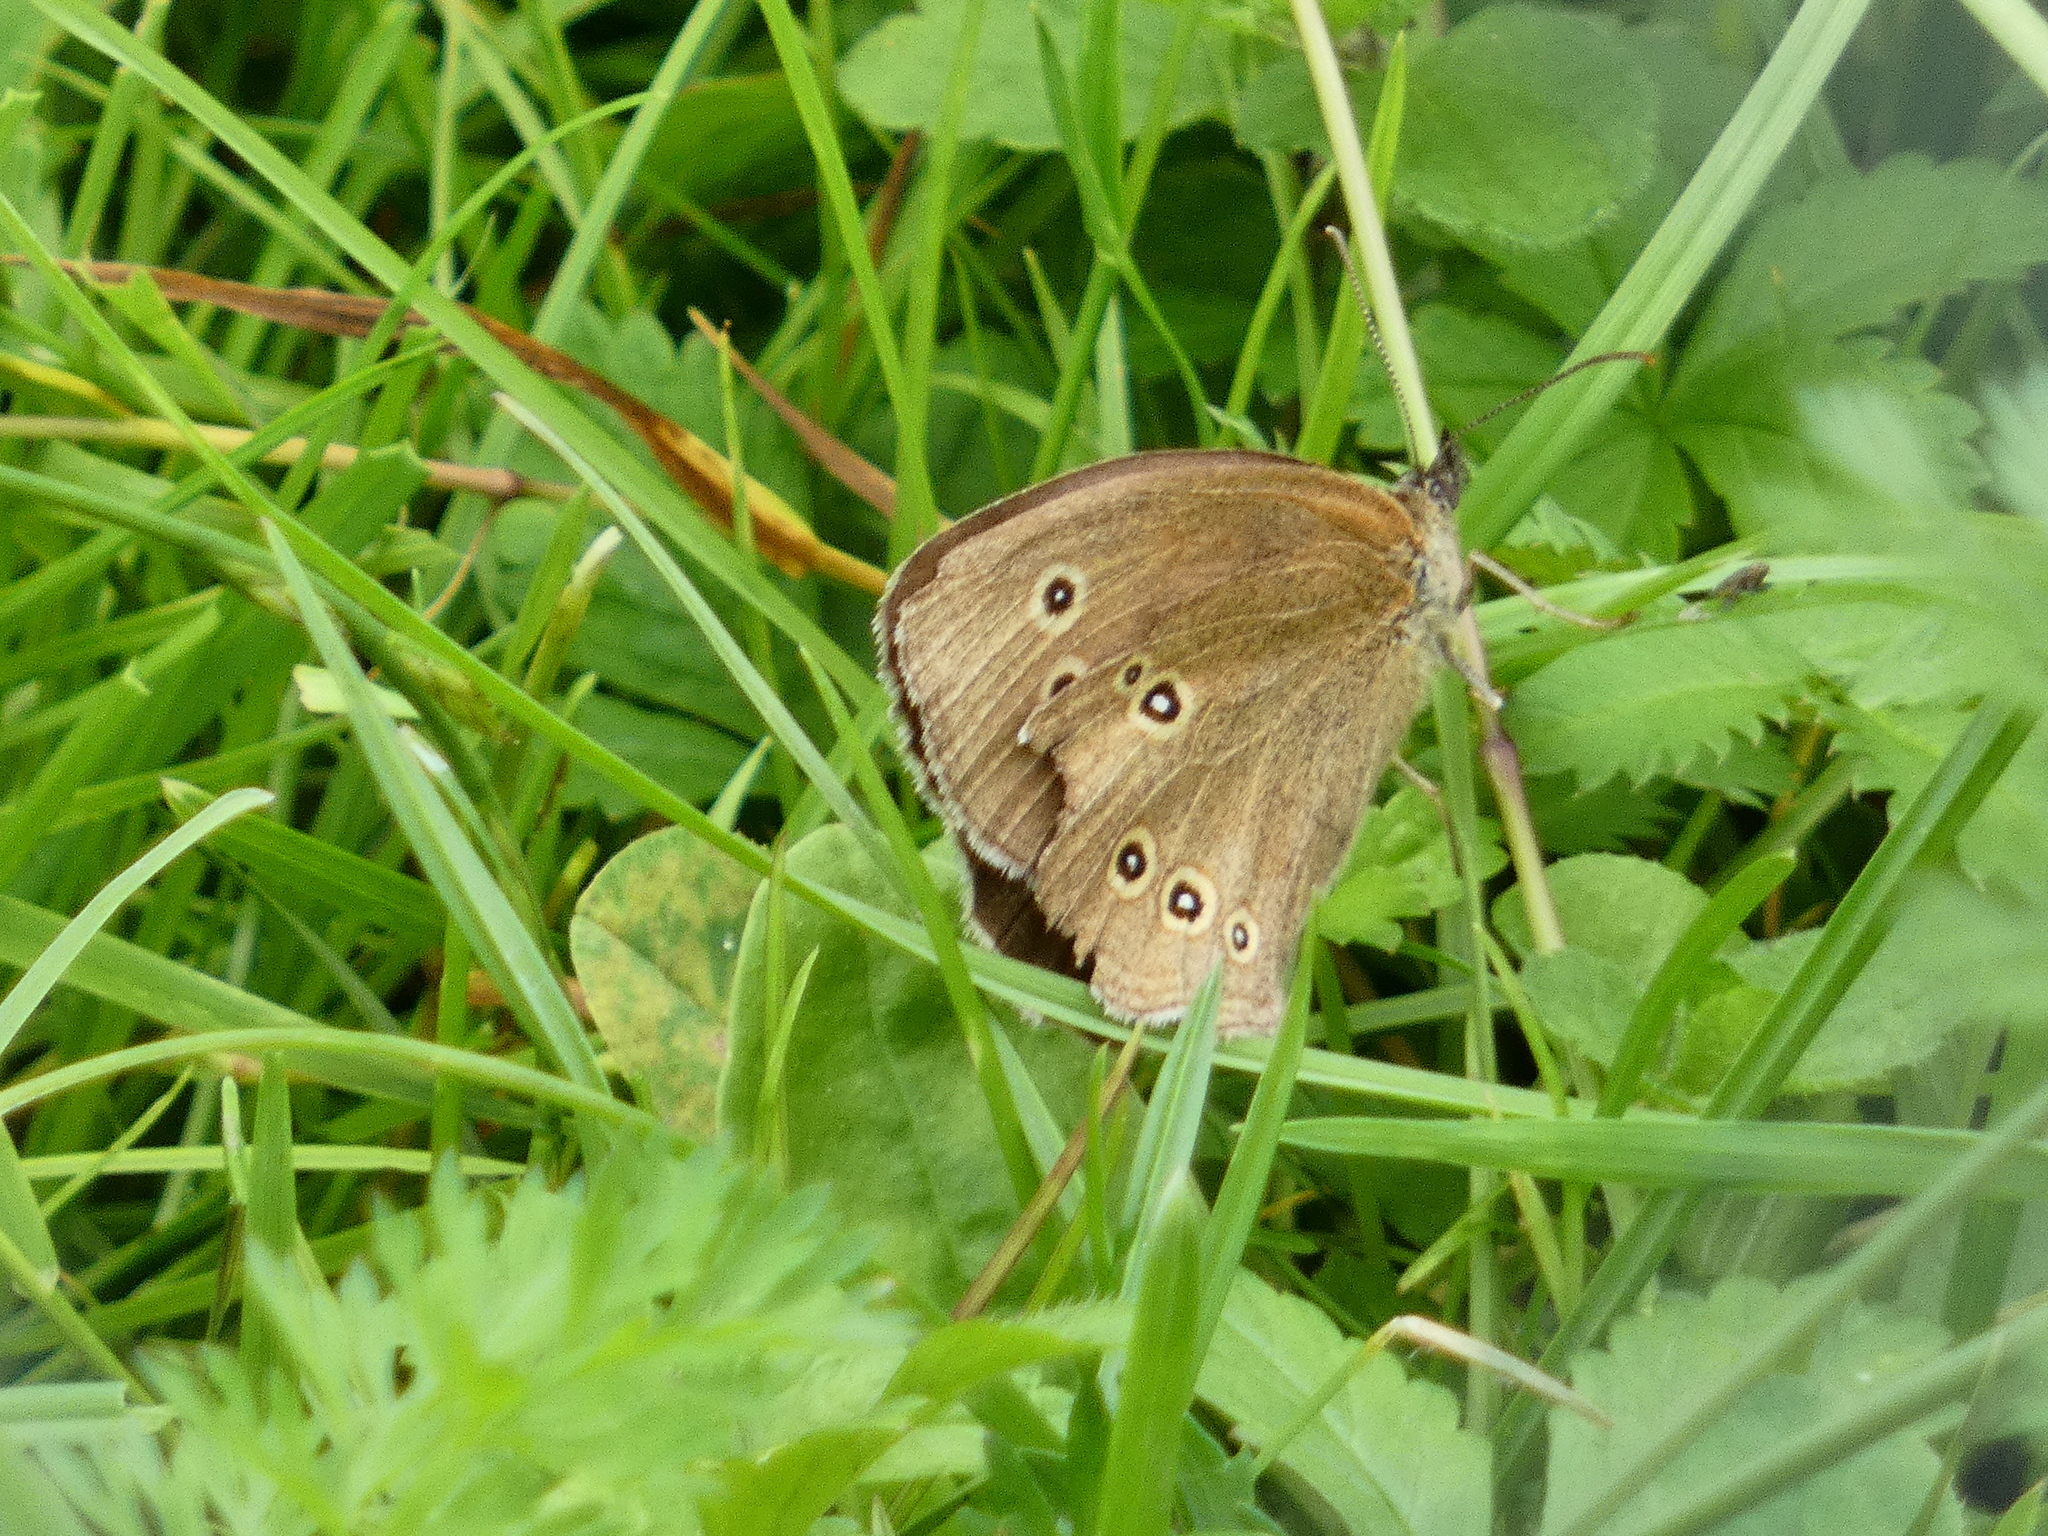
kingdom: Animalia
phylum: Arthropoda
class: Insecta
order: Lepidoptera
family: Nymphalidae
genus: Aphantopus
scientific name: Aphantopus hyperantus
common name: Ringlet
